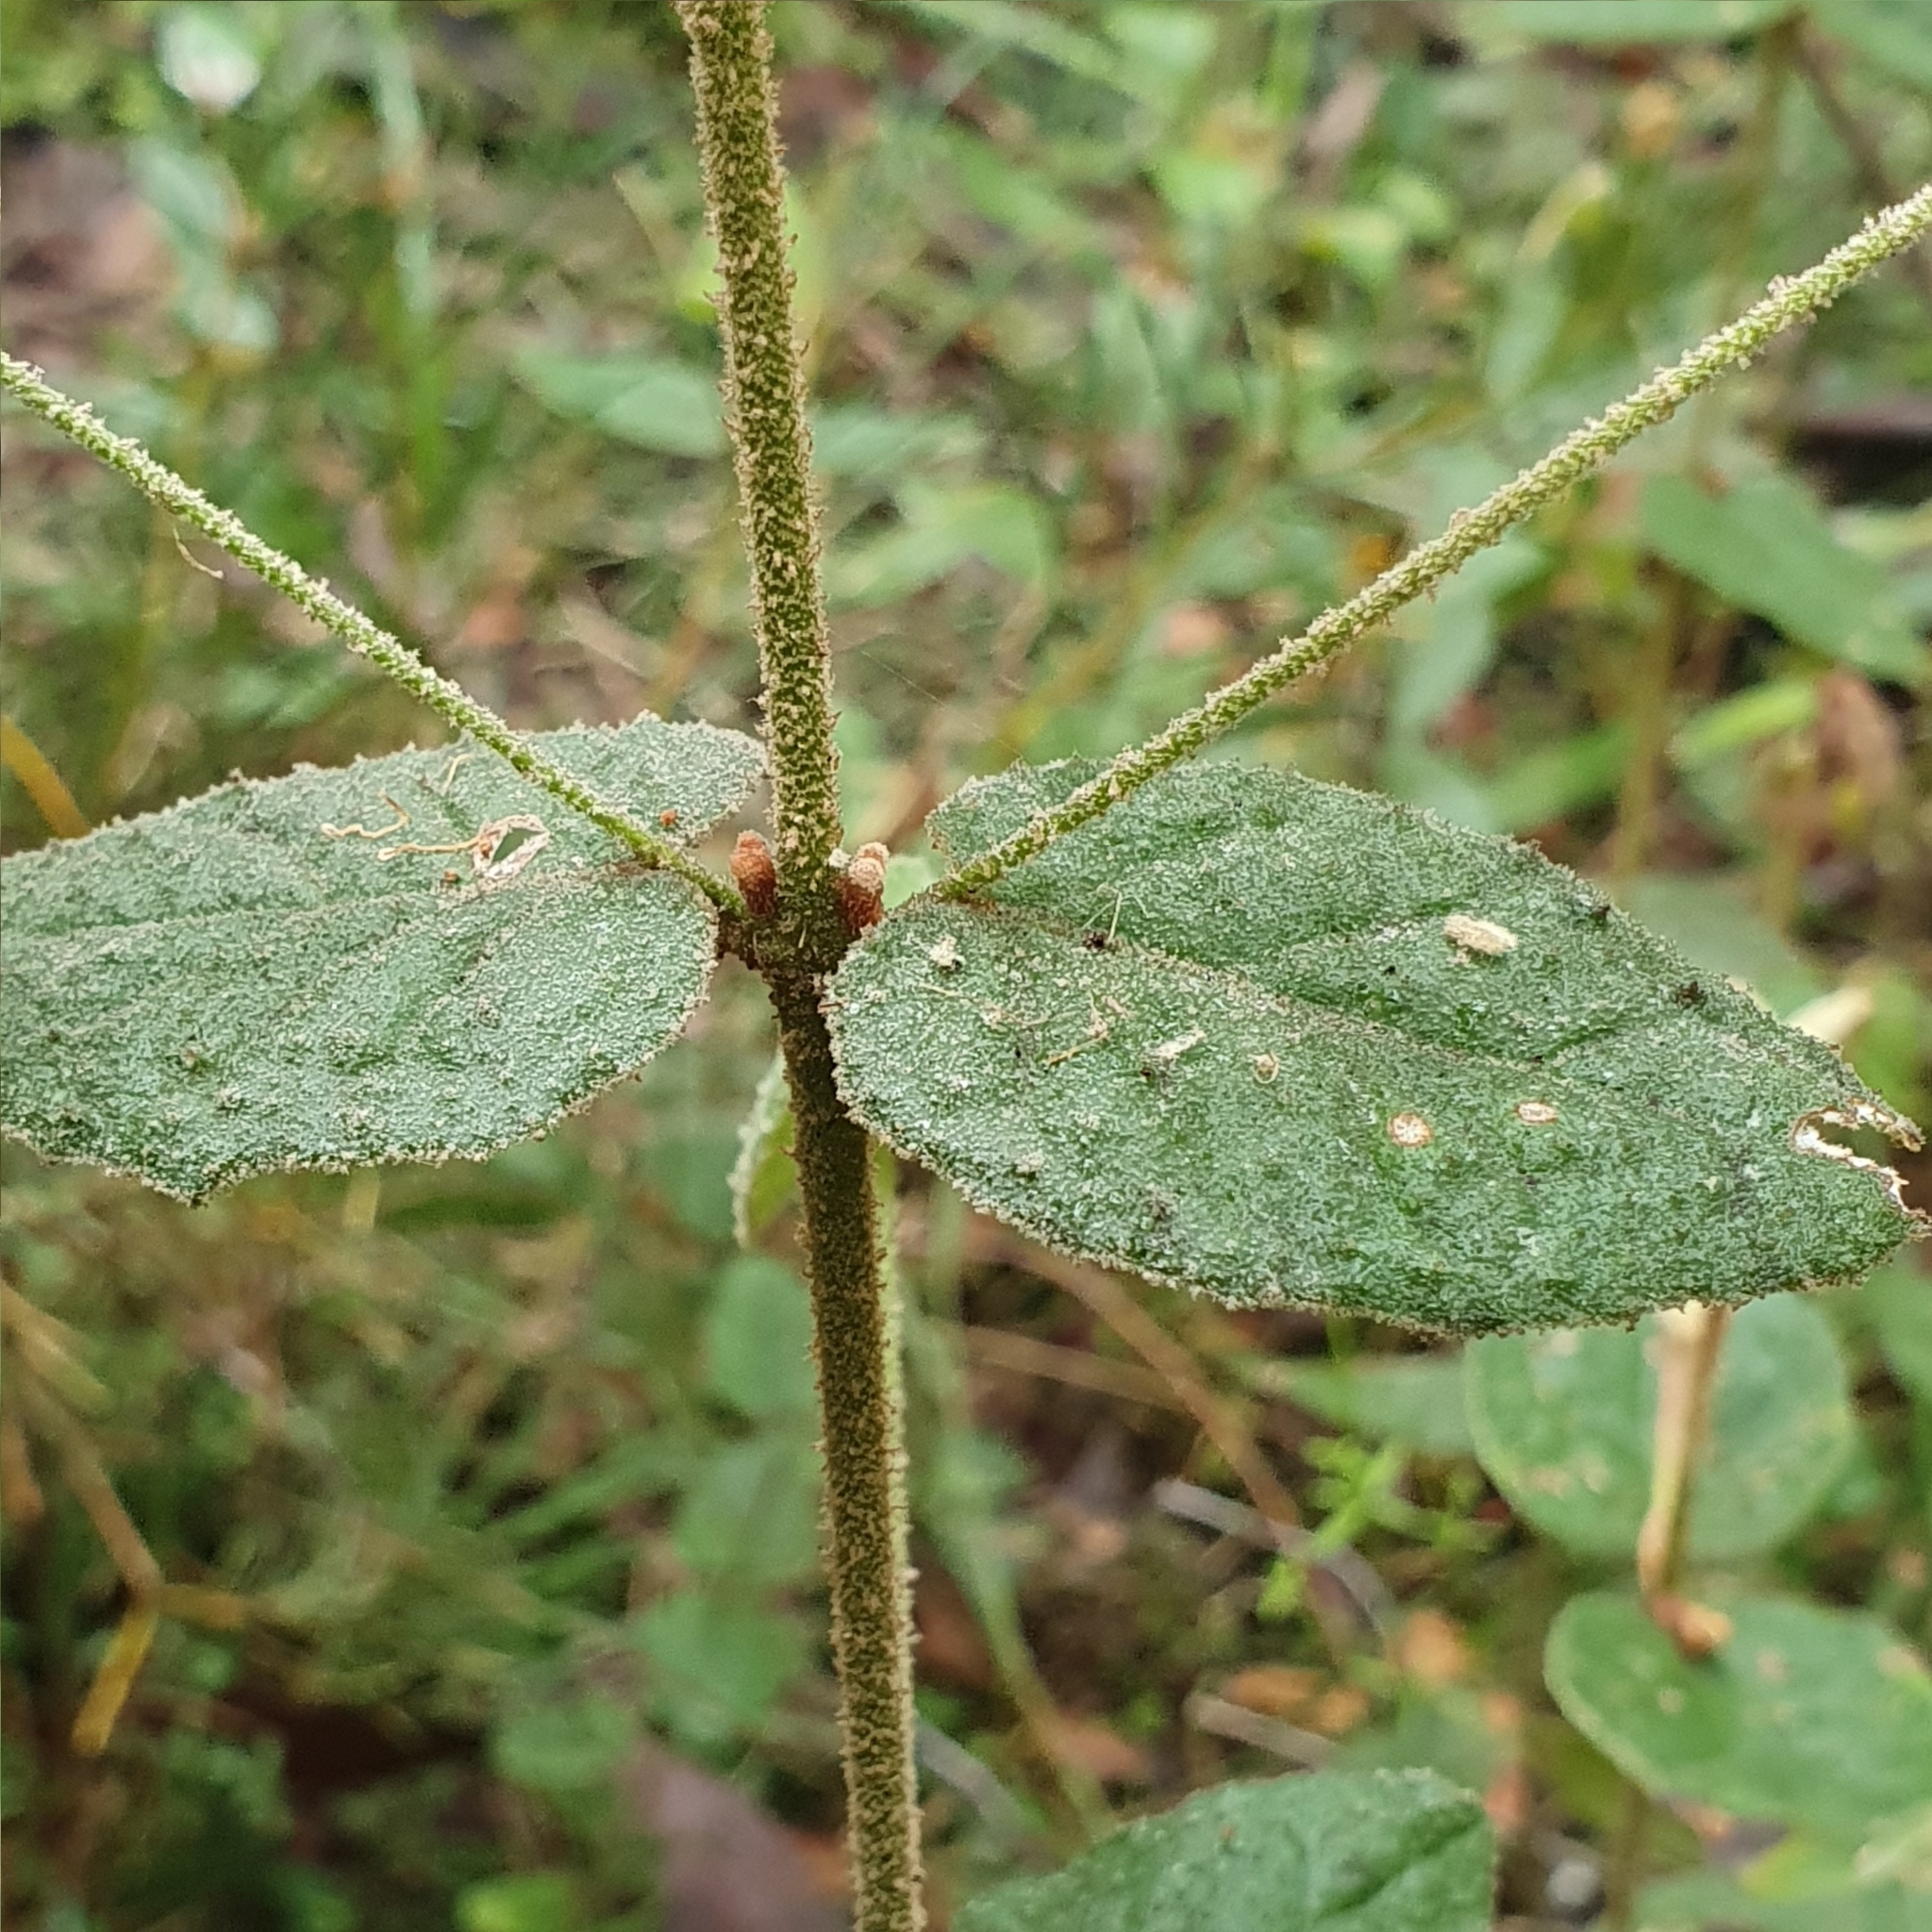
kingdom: Plantae
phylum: Tracheophyta
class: Magnoliopsida
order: Sapindales
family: Rutaceae
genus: Correa
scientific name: Correa reflexa
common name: Common correa
